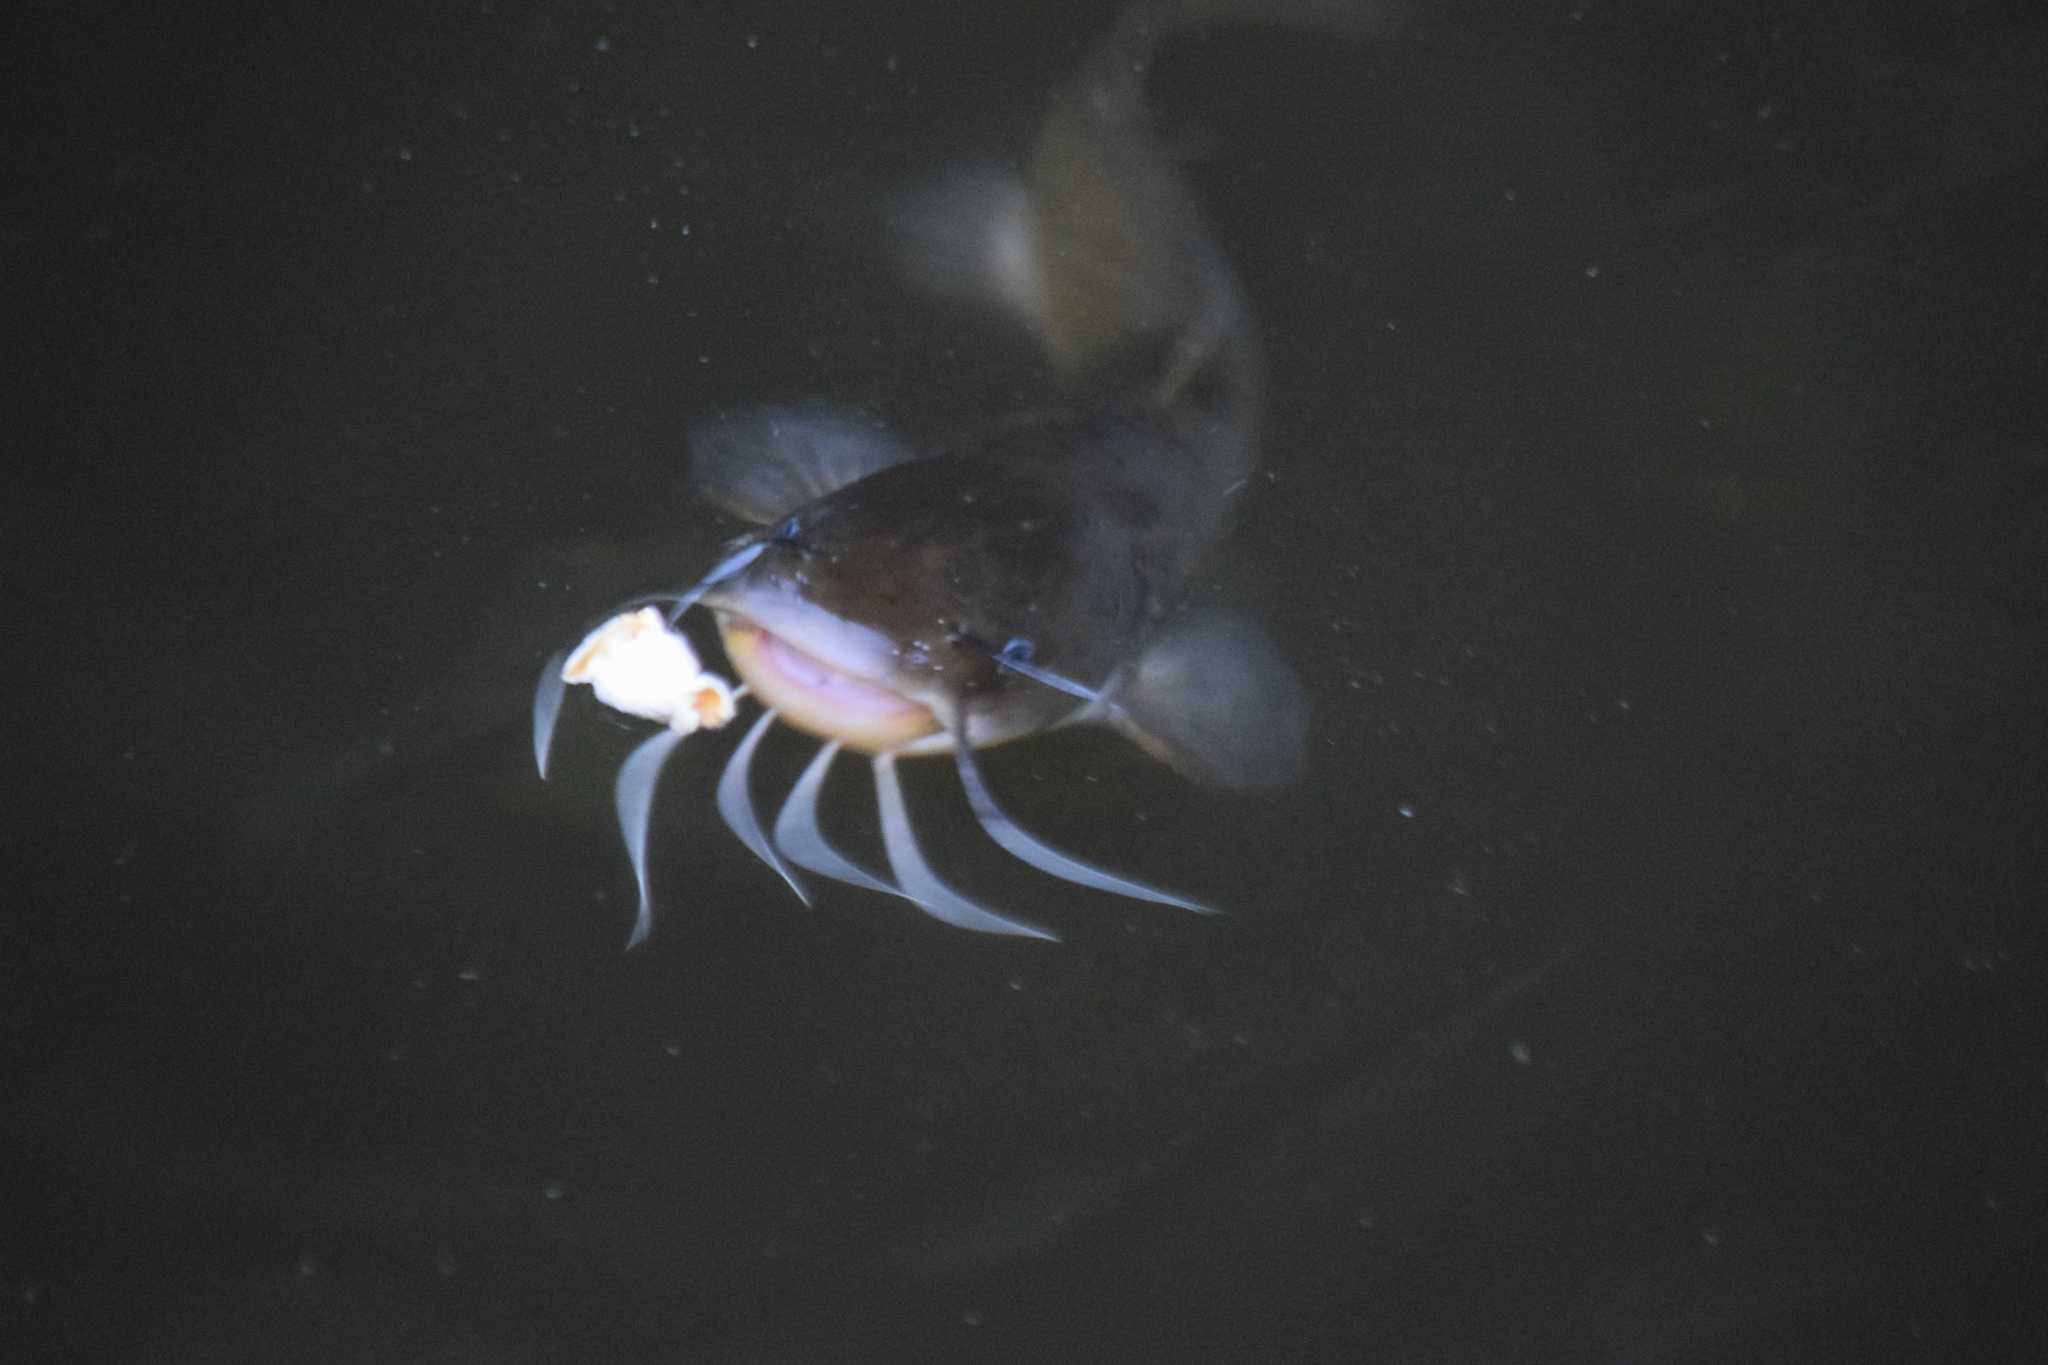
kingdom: Animalia
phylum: Chordata
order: Siluriformes
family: Ictaluridae
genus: Ameiurus
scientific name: Ameiurus
